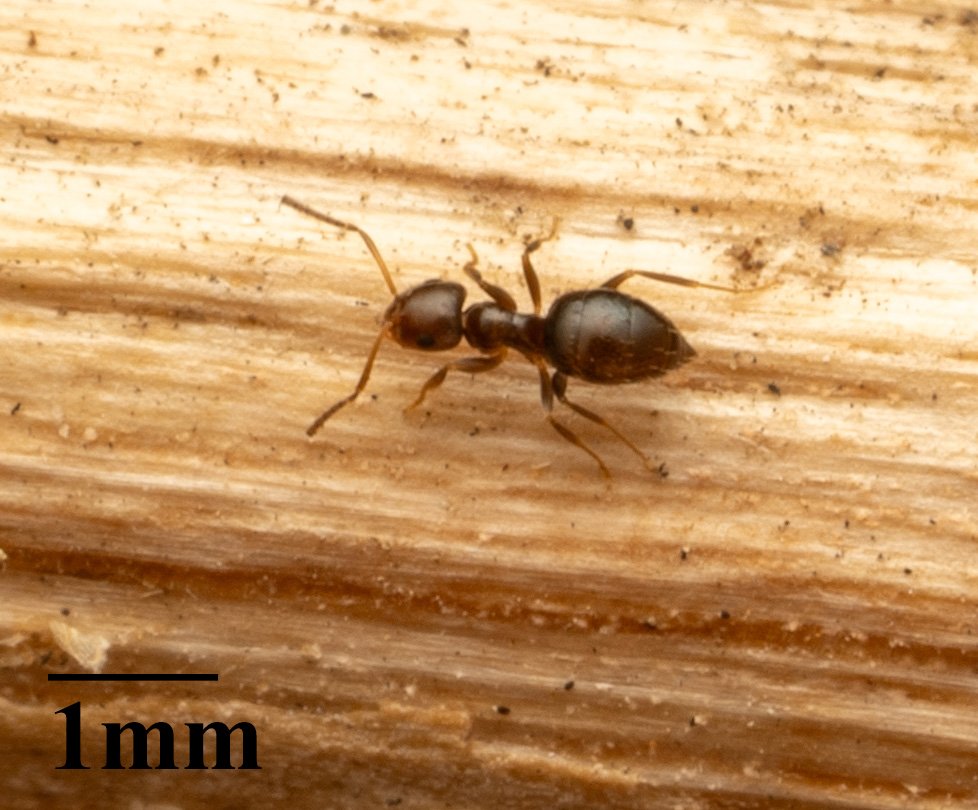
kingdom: Animalia
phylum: Arthropoda
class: Insecta
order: Hymenoptera
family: Formicidae
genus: Brachymyrmex
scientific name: Brachymyrmex patagonicus
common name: Dark rover ant
